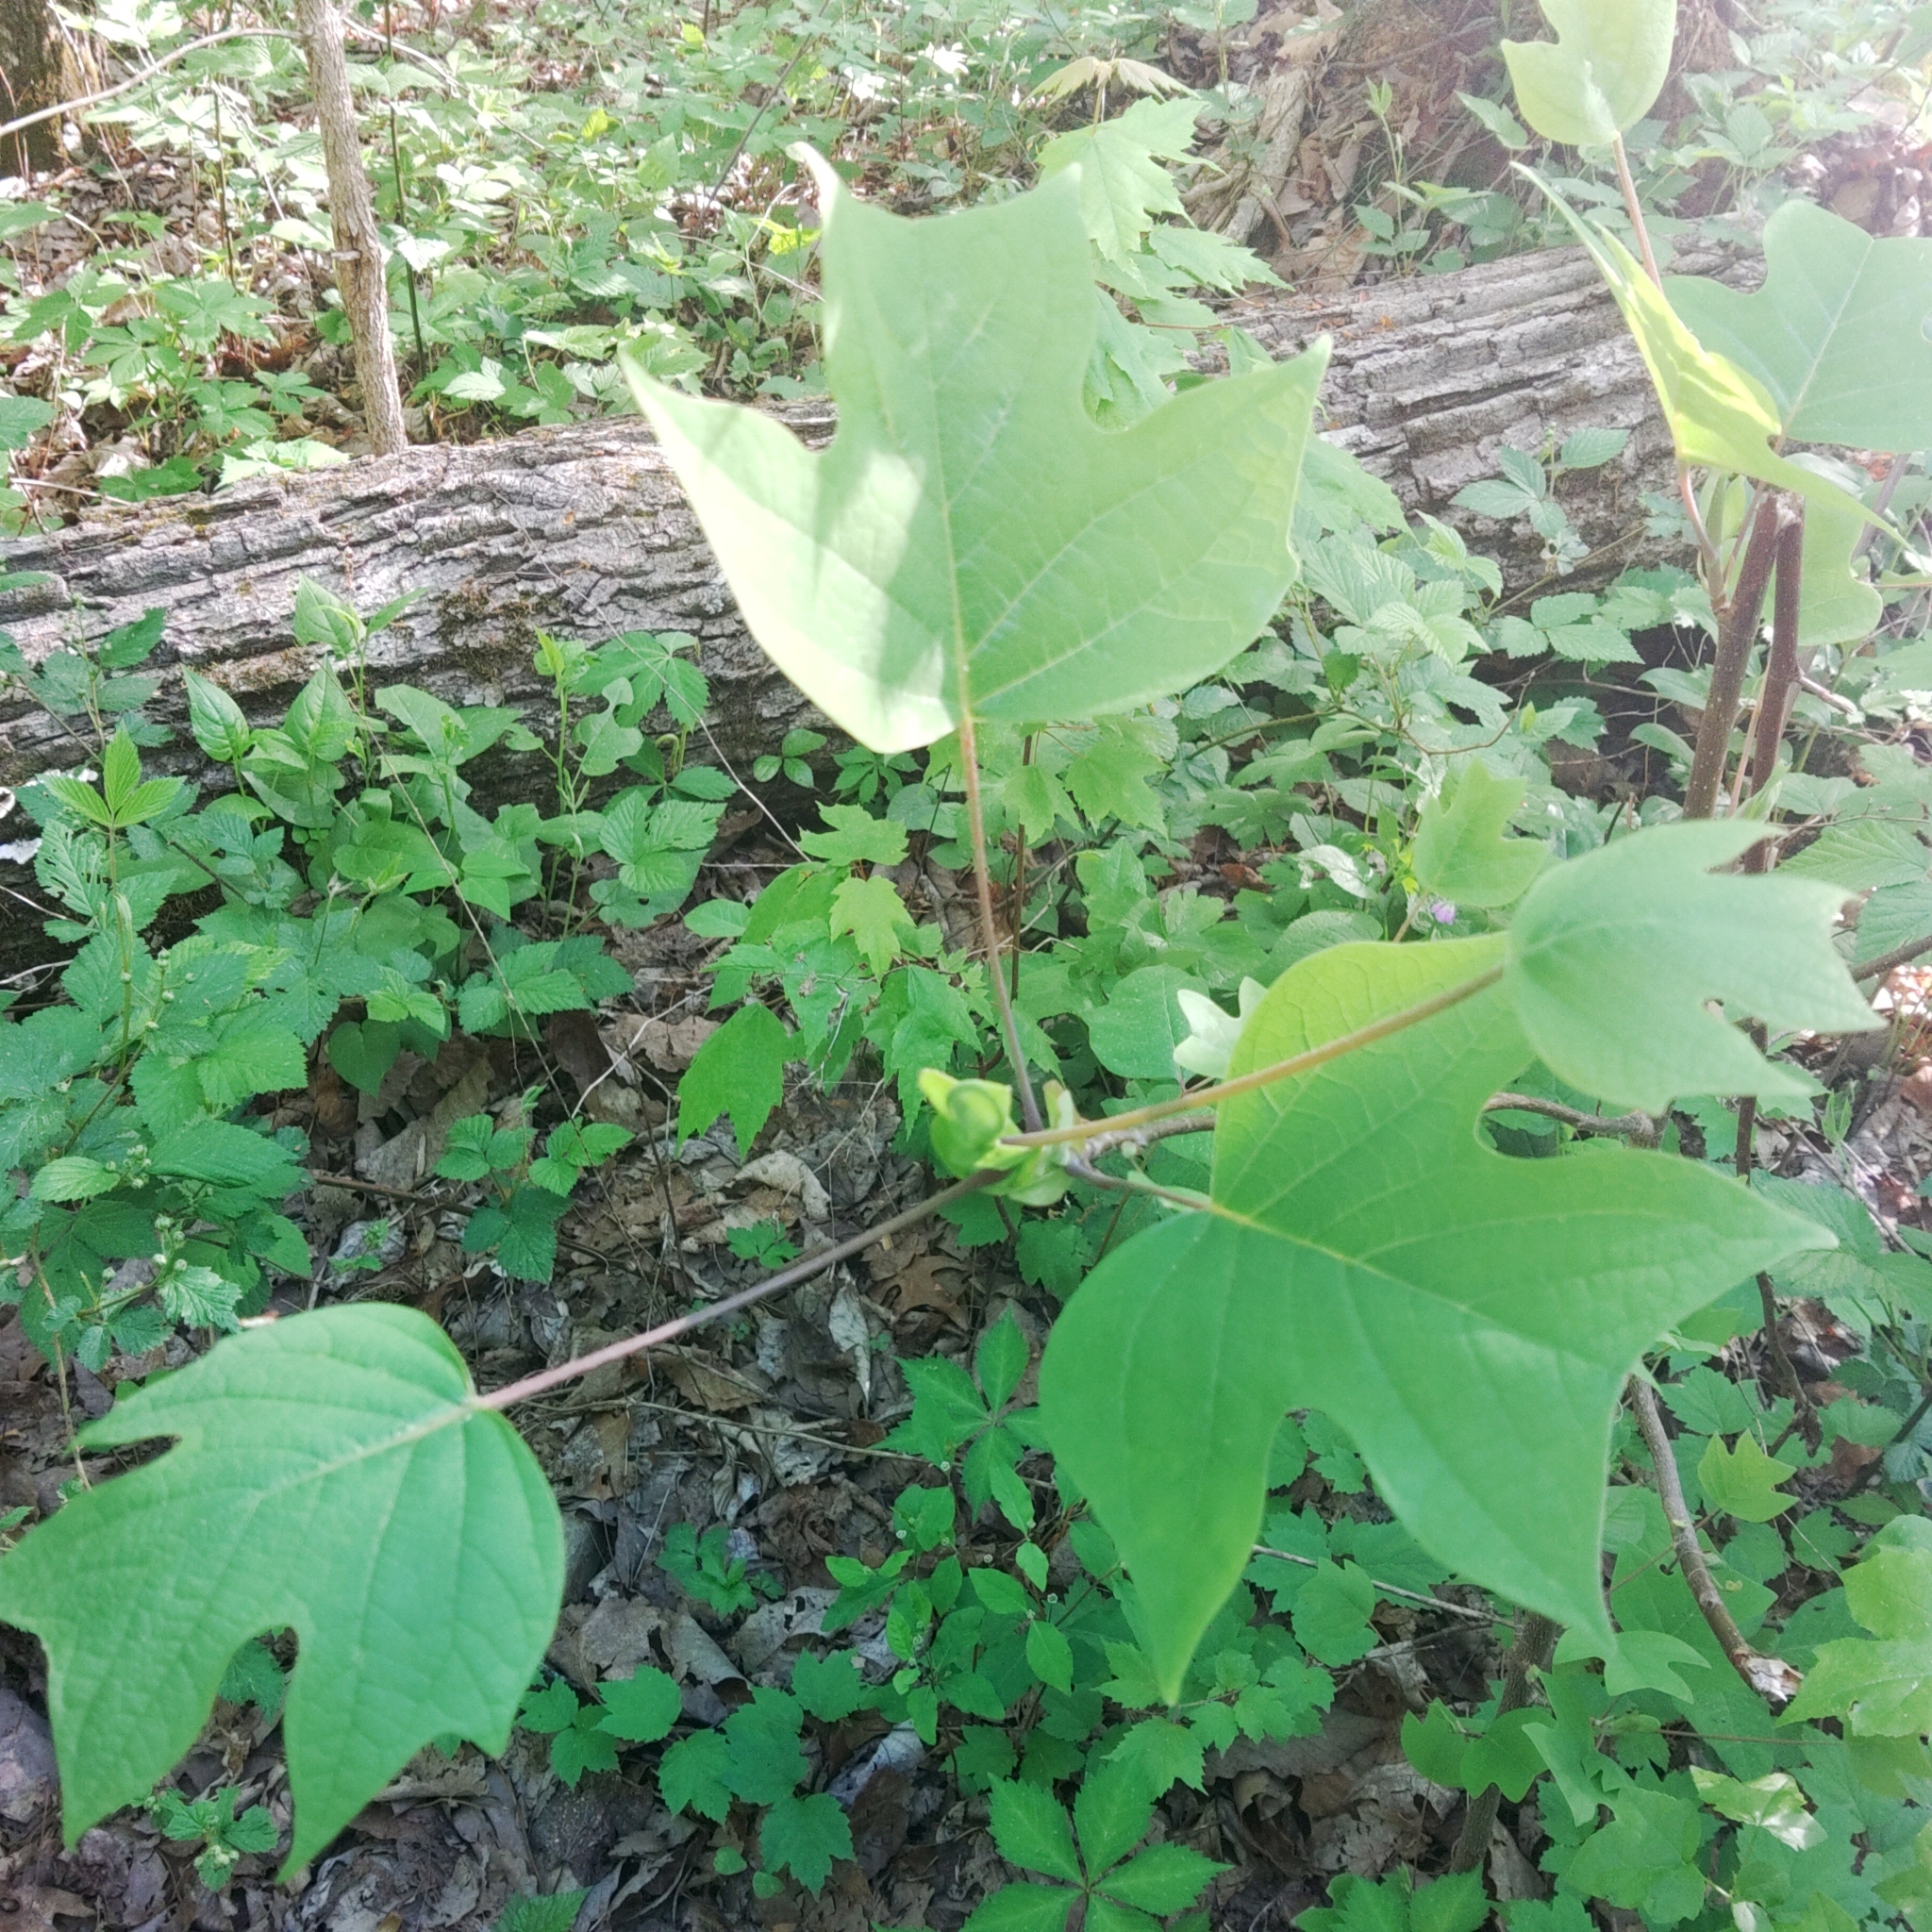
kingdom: Plantae
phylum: Tracheophyta
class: Magnoliopsida
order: Magnoliales
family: Magnoliaceae
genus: Liriodendron
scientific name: Liriodendron tulipifera
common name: Tulip tree
